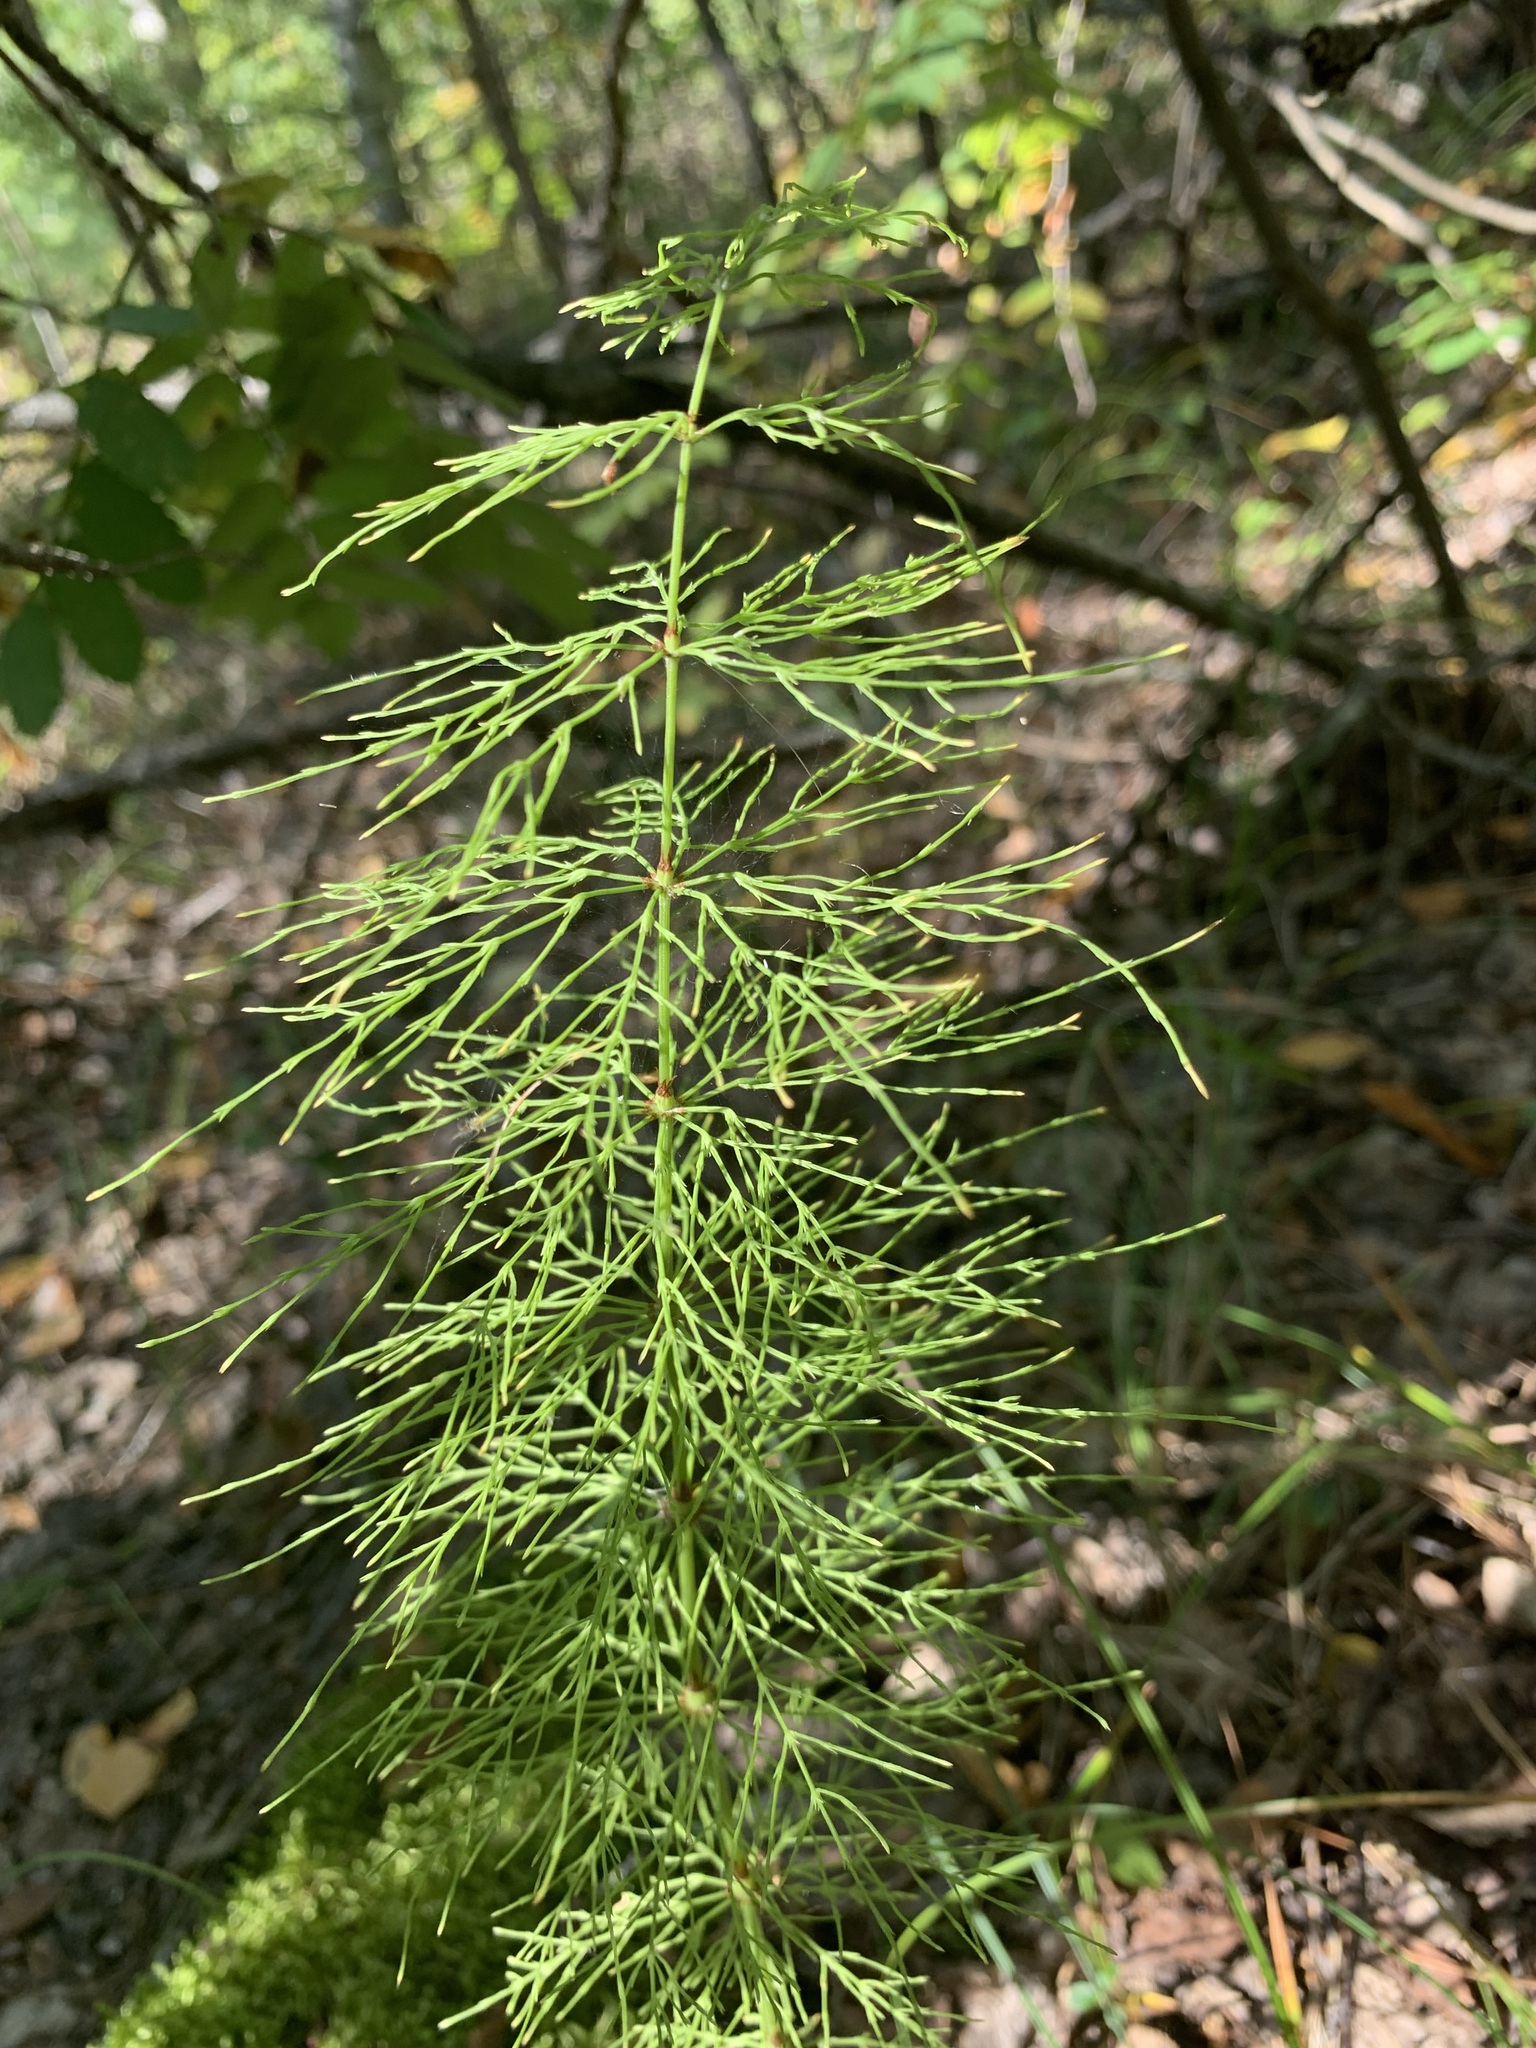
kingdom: Plantae
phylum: Tracheophyta
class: Polypodiopsida
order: Equisetales
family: Equisetaceae
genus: Equisetum
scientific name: Equisetum sylvaticum
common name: Wood horsetail
